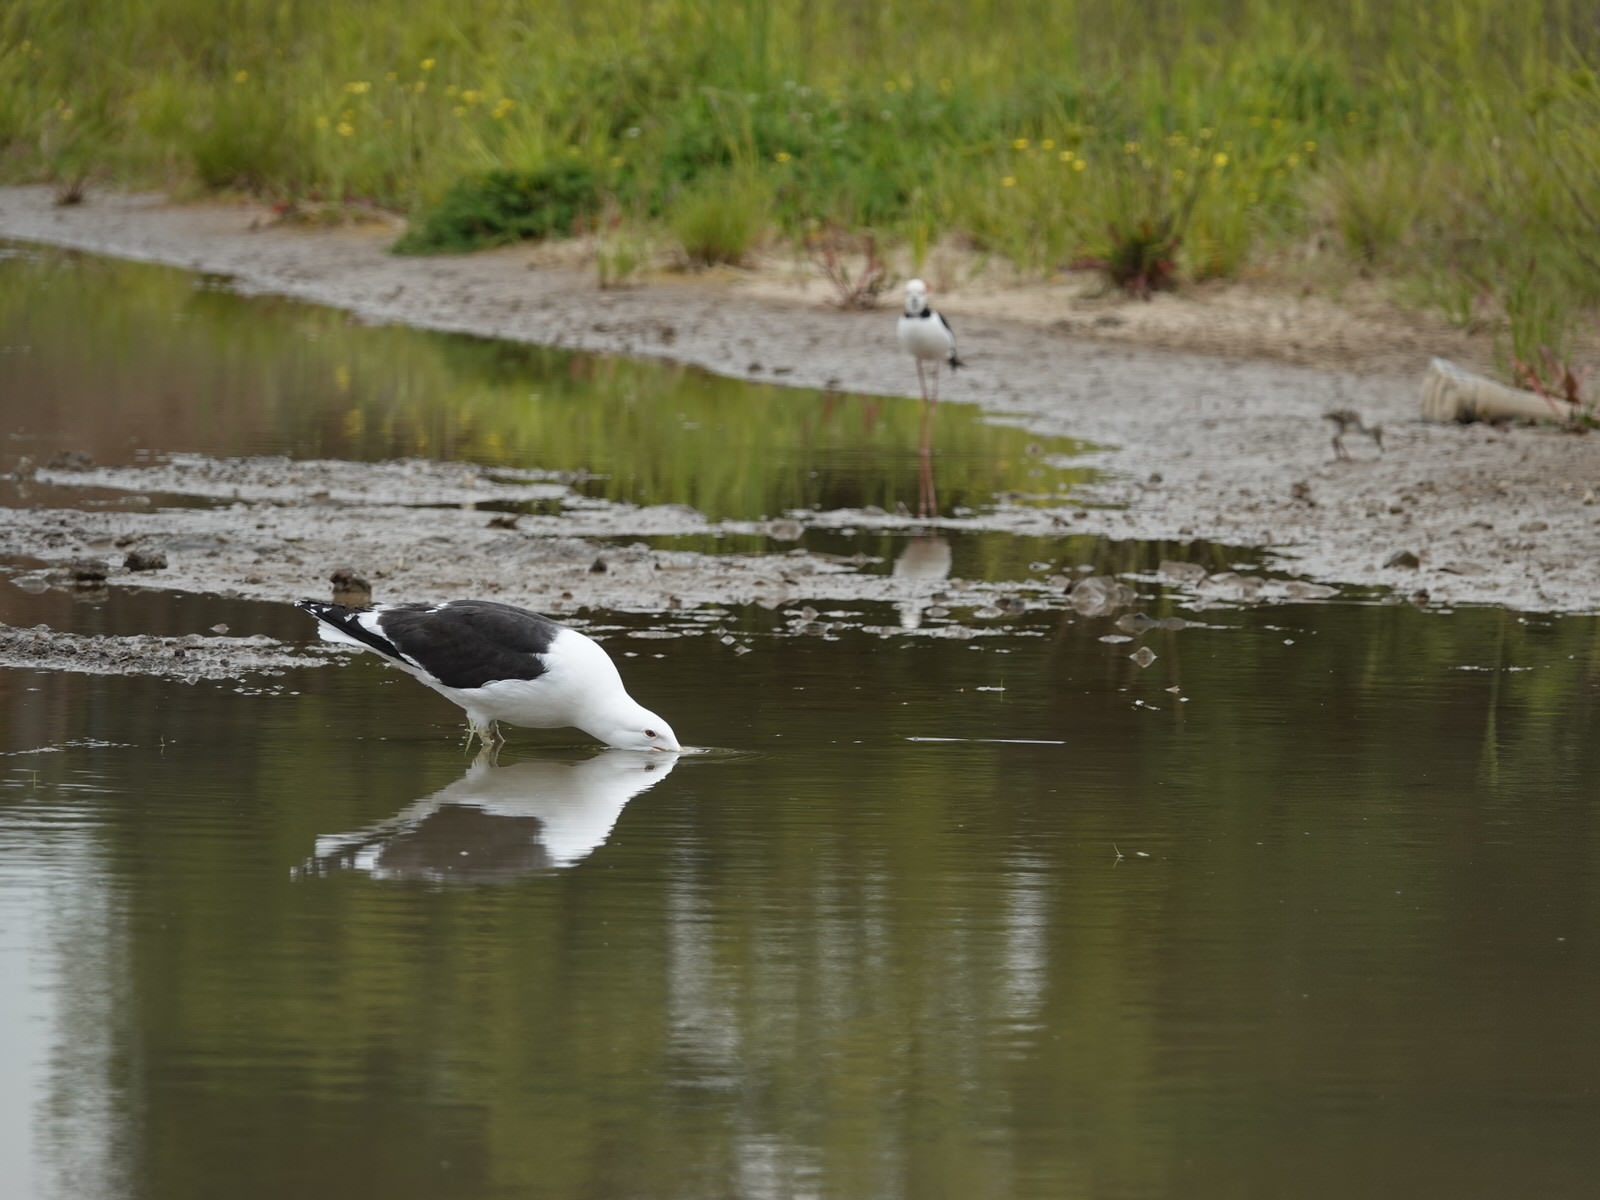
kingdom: Animalia
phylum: Chordata
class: Aves
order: Charadriiformes
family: Laridae
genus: Larus
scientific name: Larus dominicanus
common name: Kelp gull
